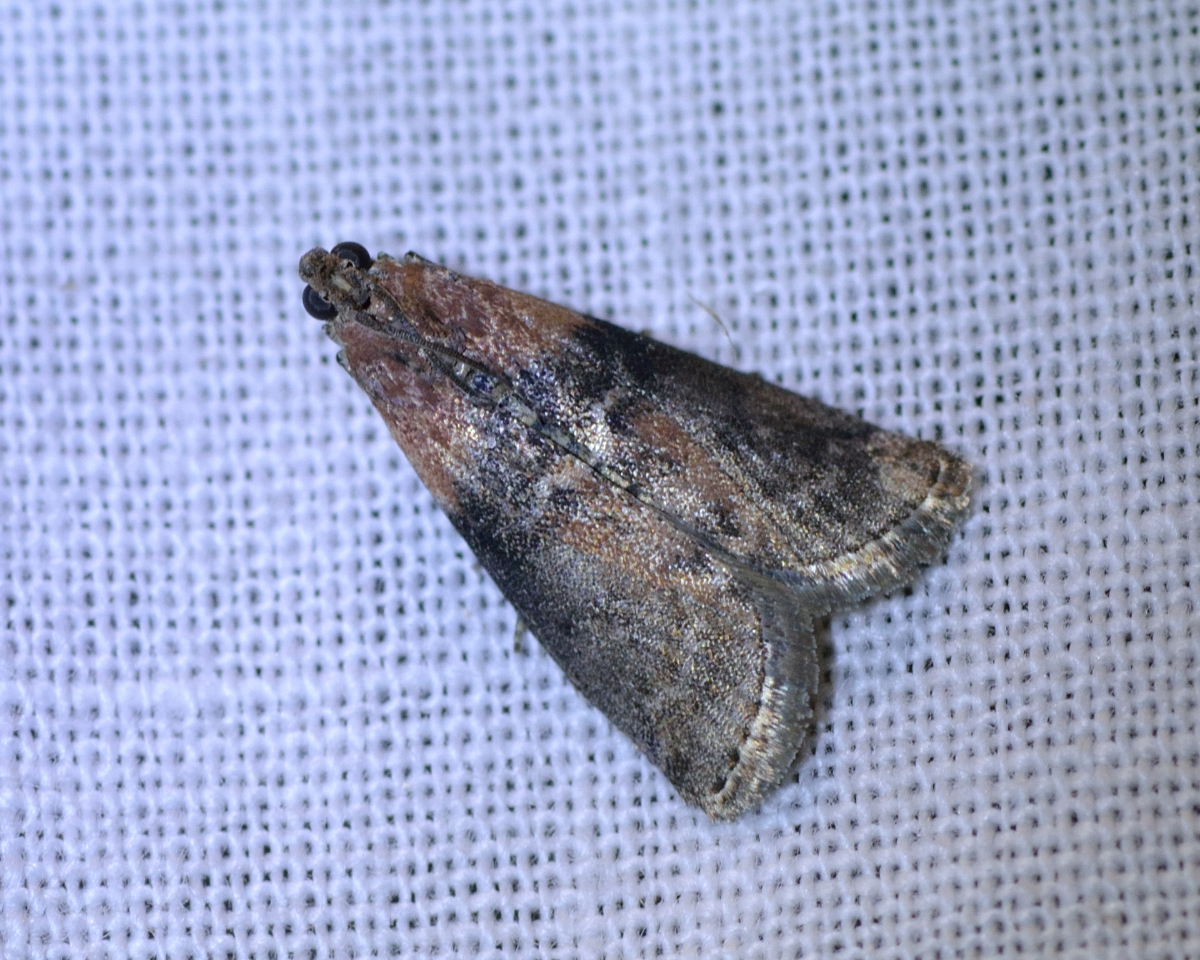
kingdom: Animalia
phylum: Arthropoda
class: Insecta
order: Lepidoptera
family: Pyralidae
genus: Sciota
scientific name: Sciota adelphella
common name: Willow knot-horn
